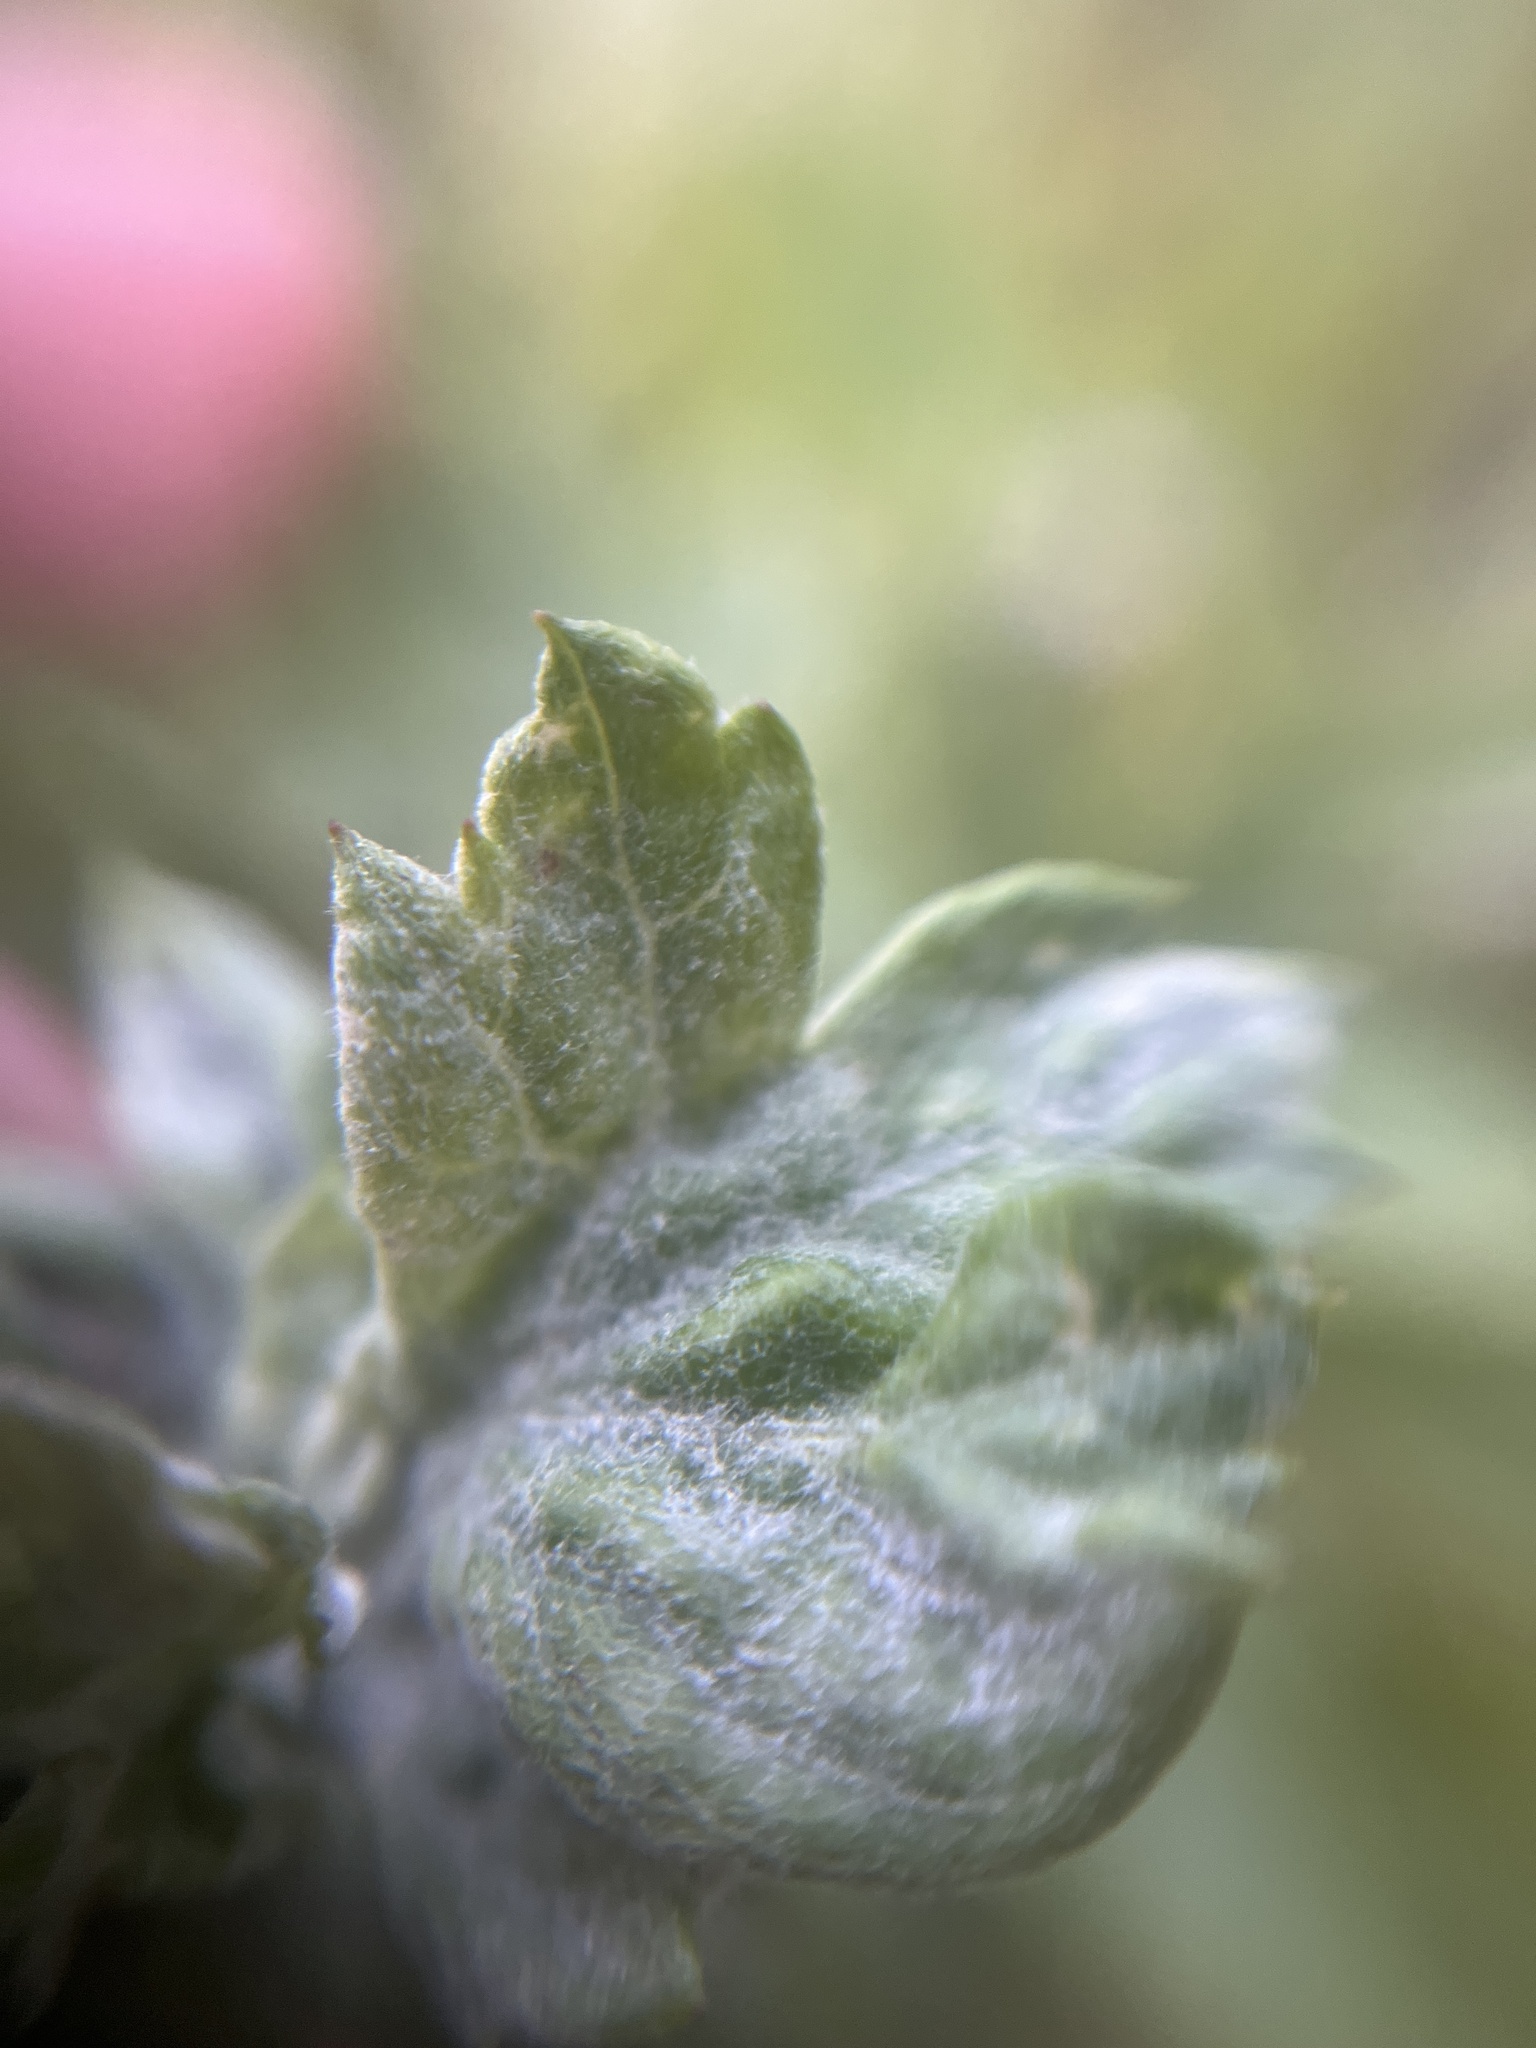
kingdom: Fungi
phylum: Ascomycota
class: Leotiomycetes
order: Helotiales
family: Erysiphaceae
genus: Golovinomyces
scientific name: Golovinomyces artemisiae
